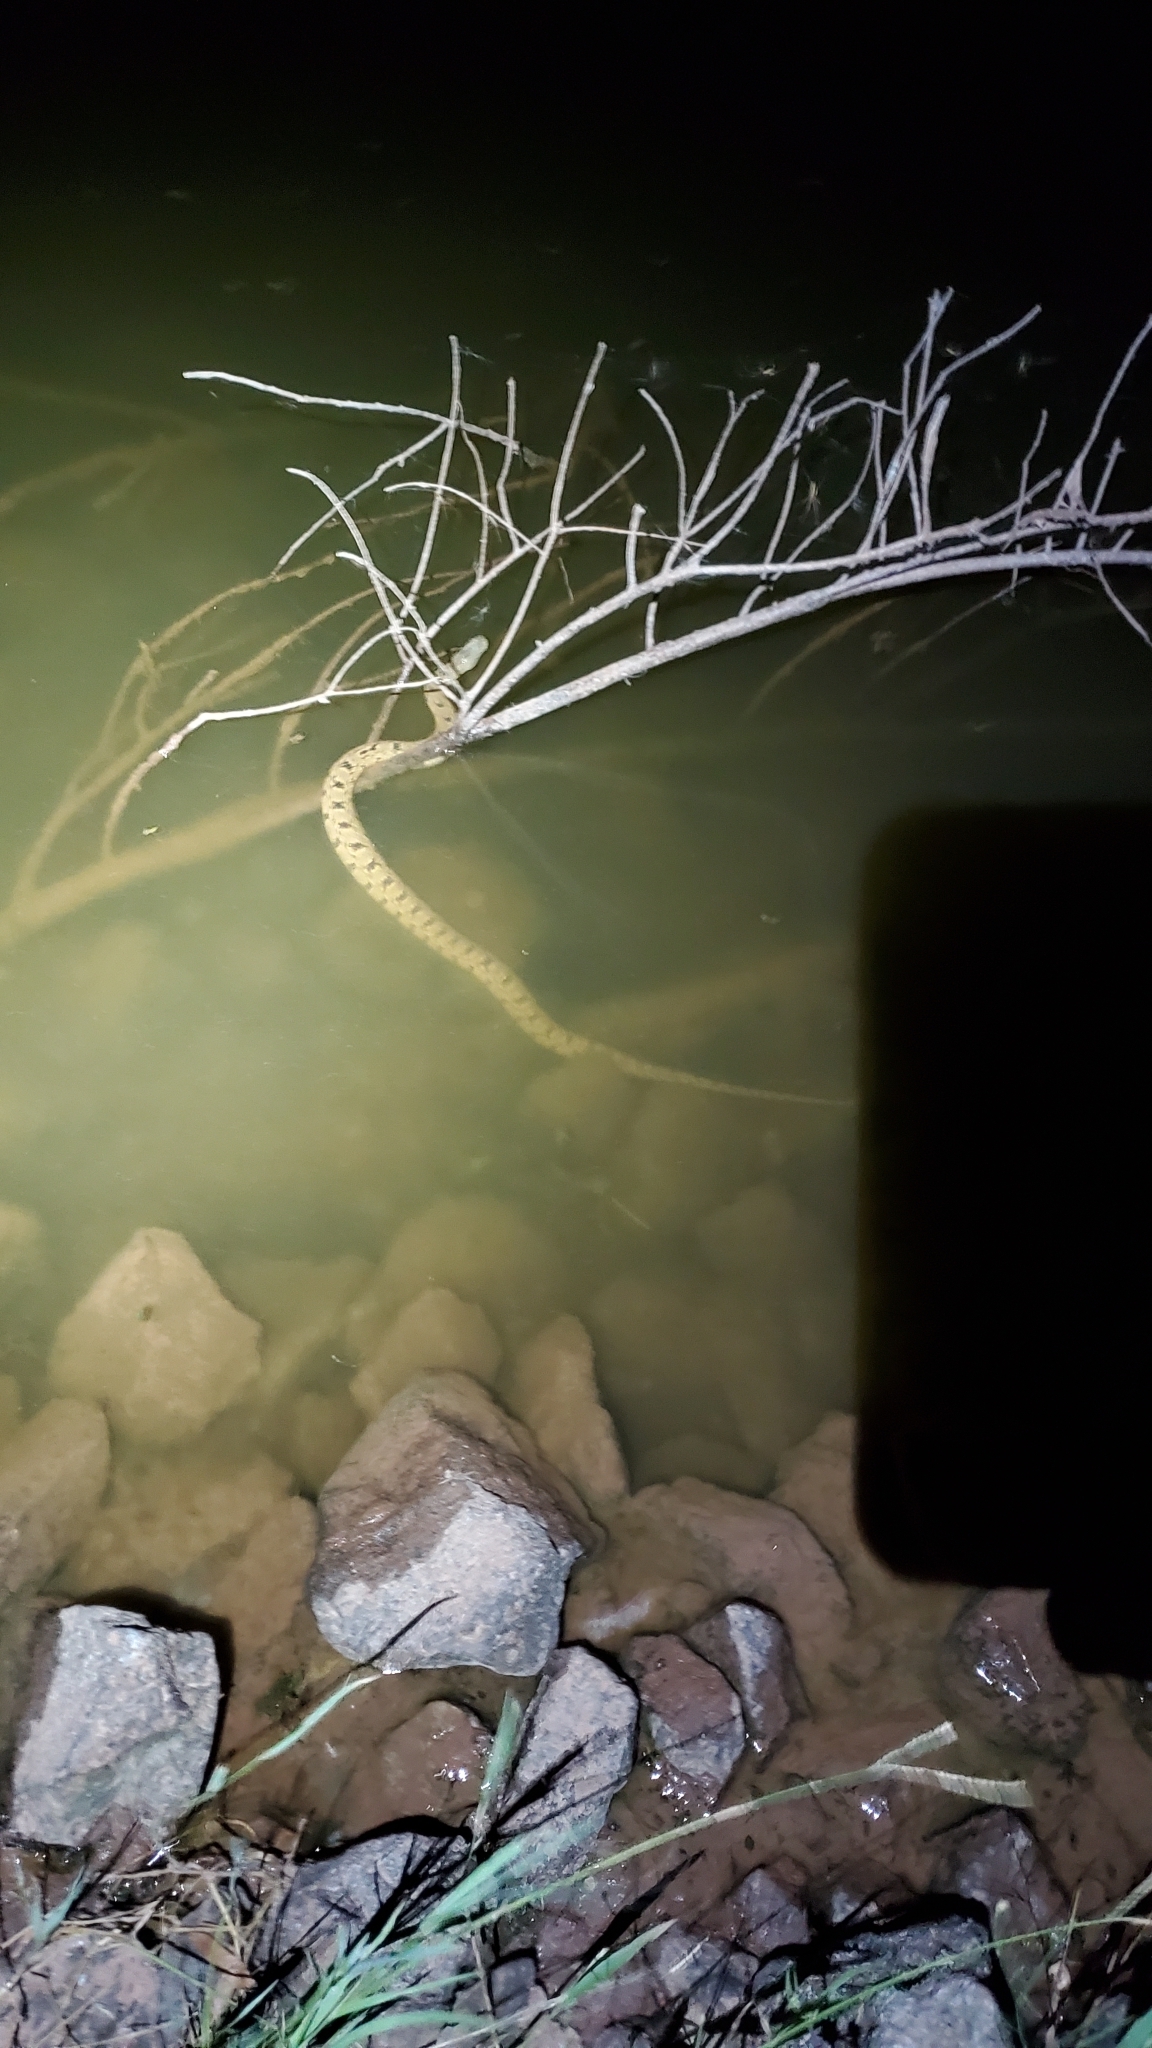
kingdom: Animalia
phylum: Chordata
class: Squamata
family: Colubridae
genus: Nerodia
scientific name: Nerodia rhombifer
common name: Diamondback water snake
